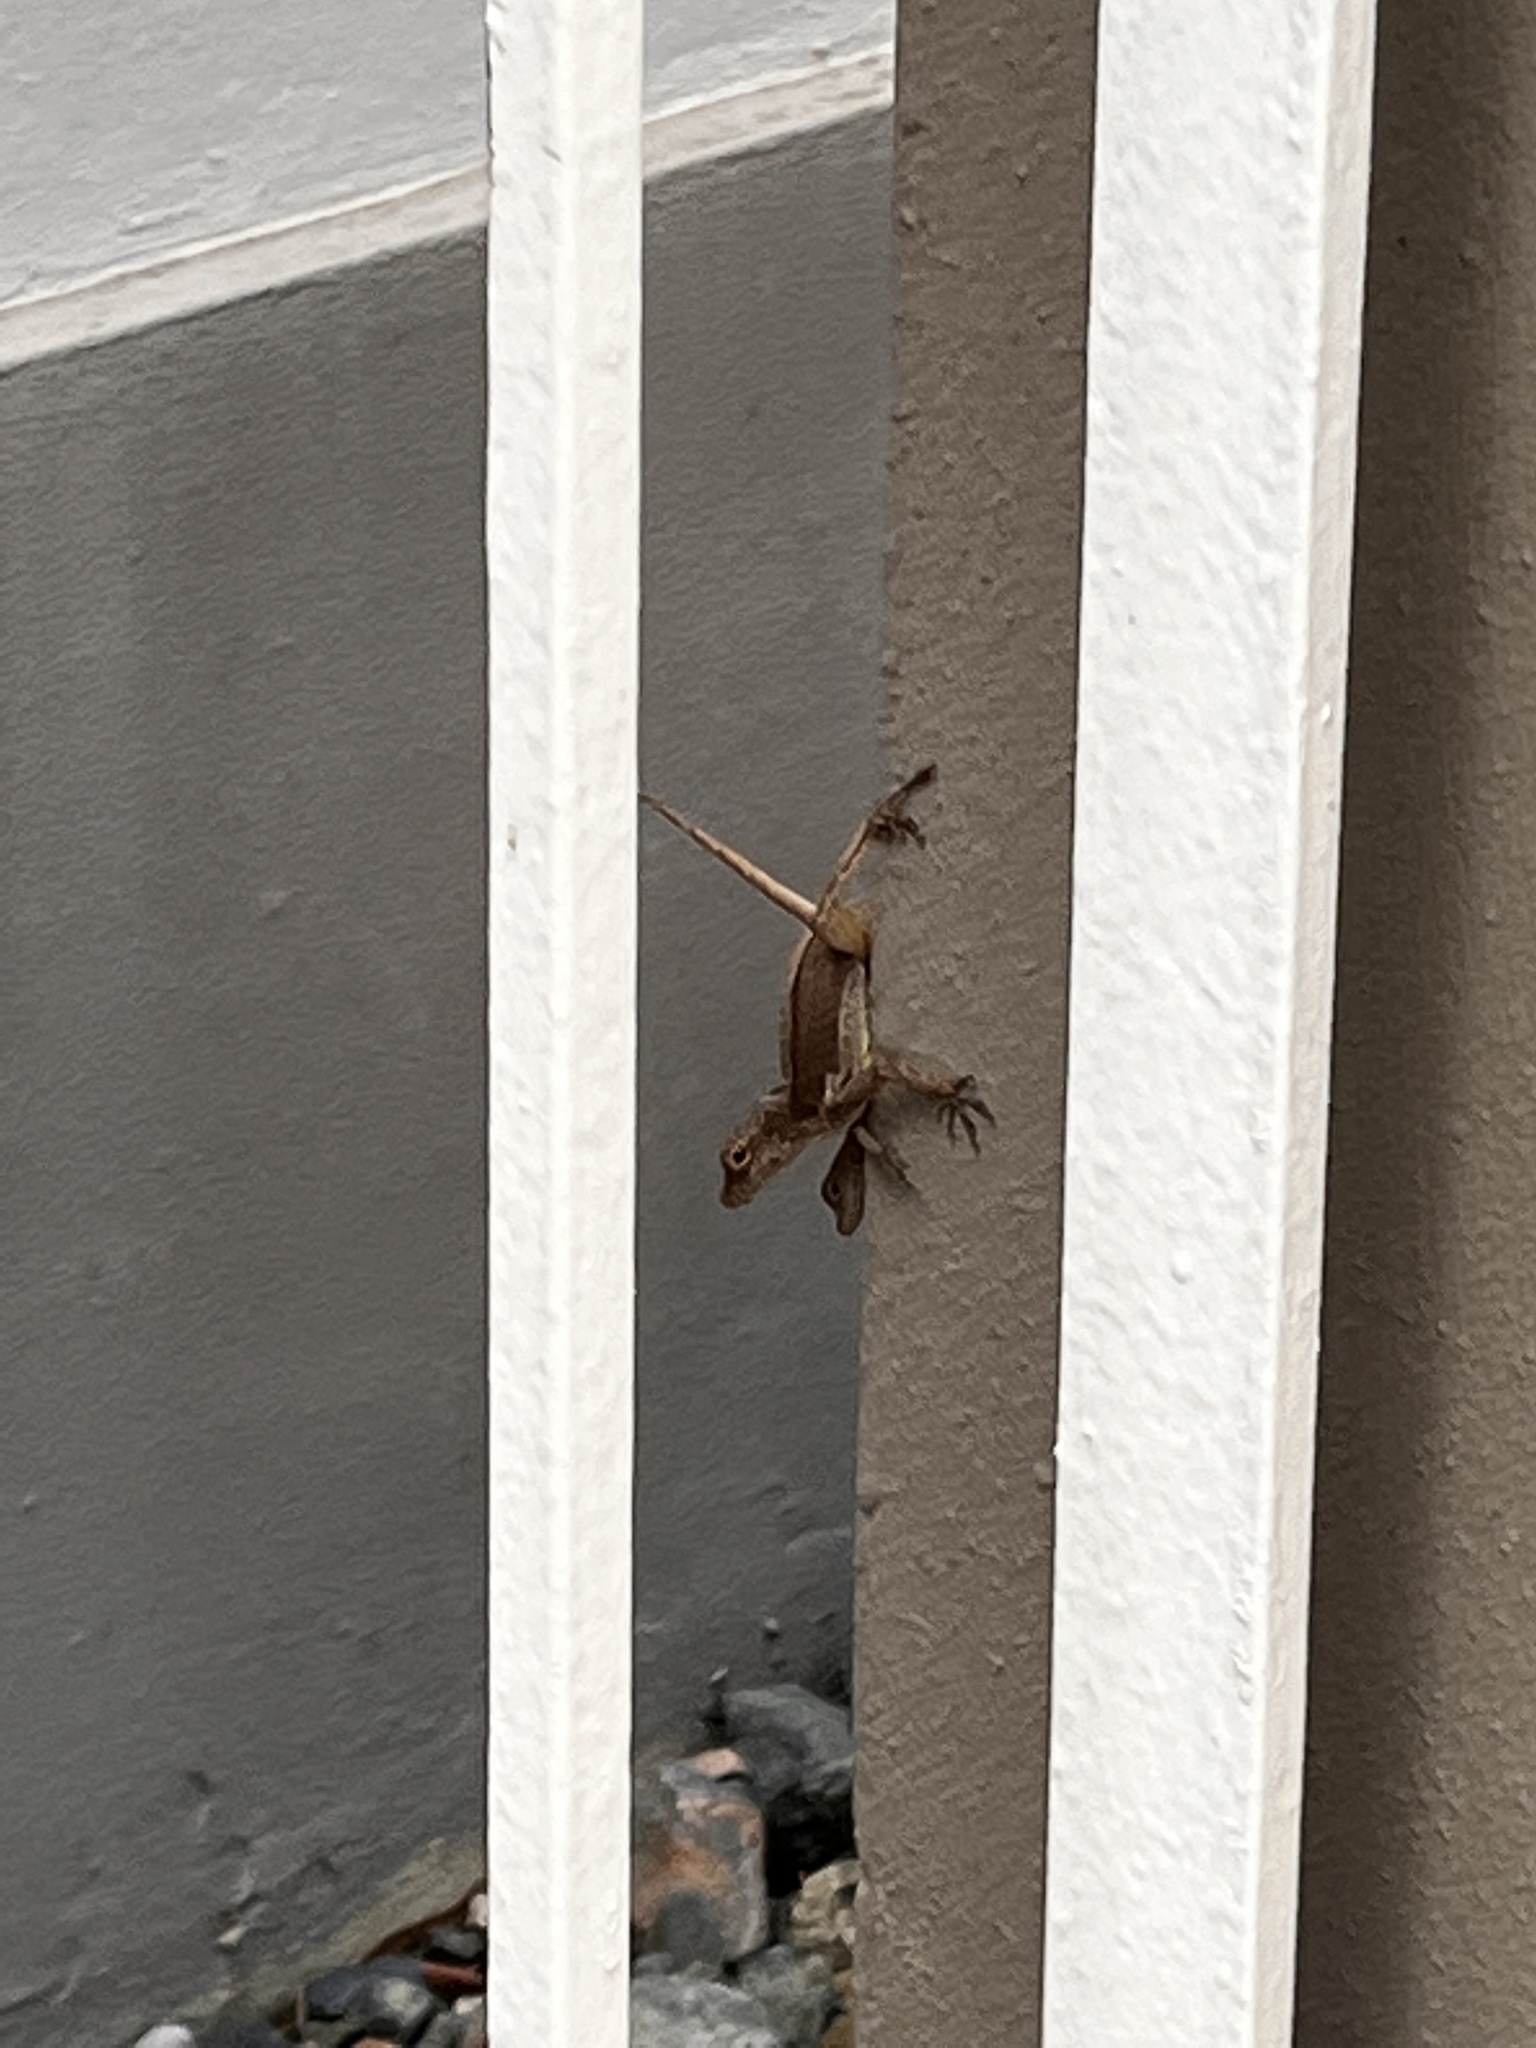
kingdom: Animalia
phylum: Chordata
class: Squamata
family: Dactyloidae
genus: Anolis
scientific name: Anolis cristatellus
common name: Crested anole
